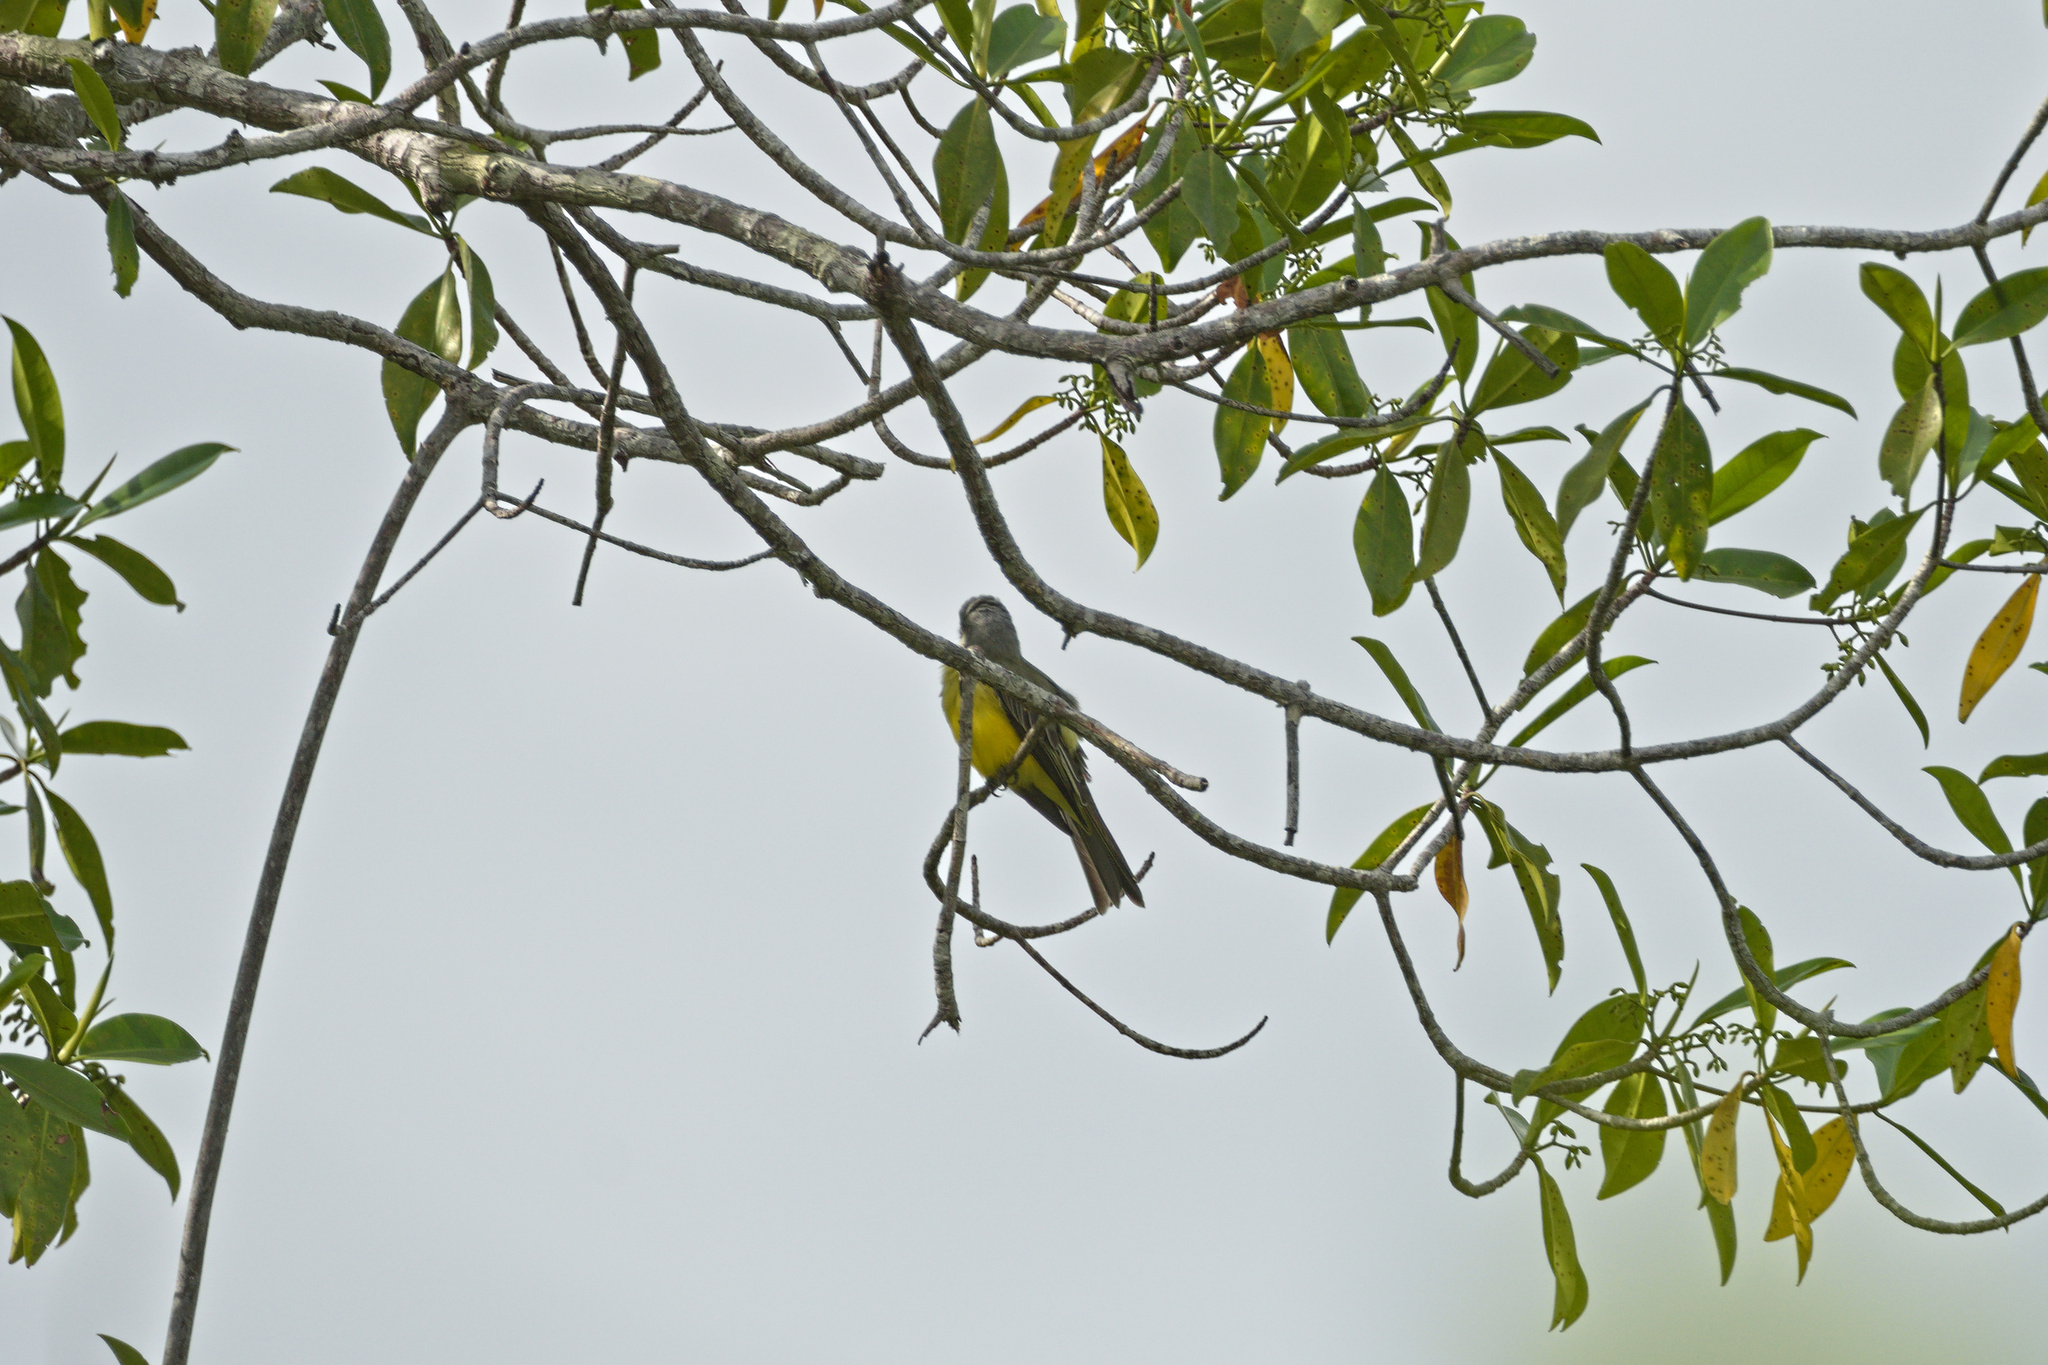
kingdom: Animalia
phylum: Chordata
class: Aves
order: Passeriformes
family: Tyrannidae
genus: Tyrannus
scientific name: Tyrannus melancholicus
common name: Tropical kingbird
